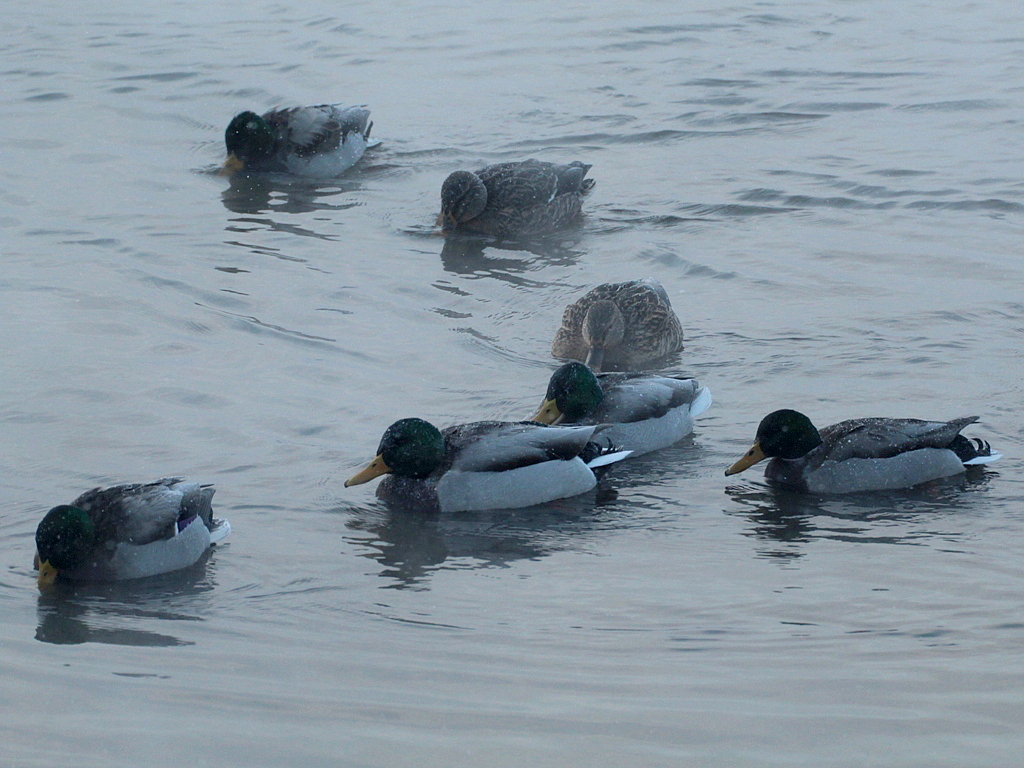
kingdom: Animalia
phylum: Chordata
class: Aves
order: Anseriformes
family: Anatidae
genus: Anas
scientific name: Anas platyrhynchos
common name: Mallard
